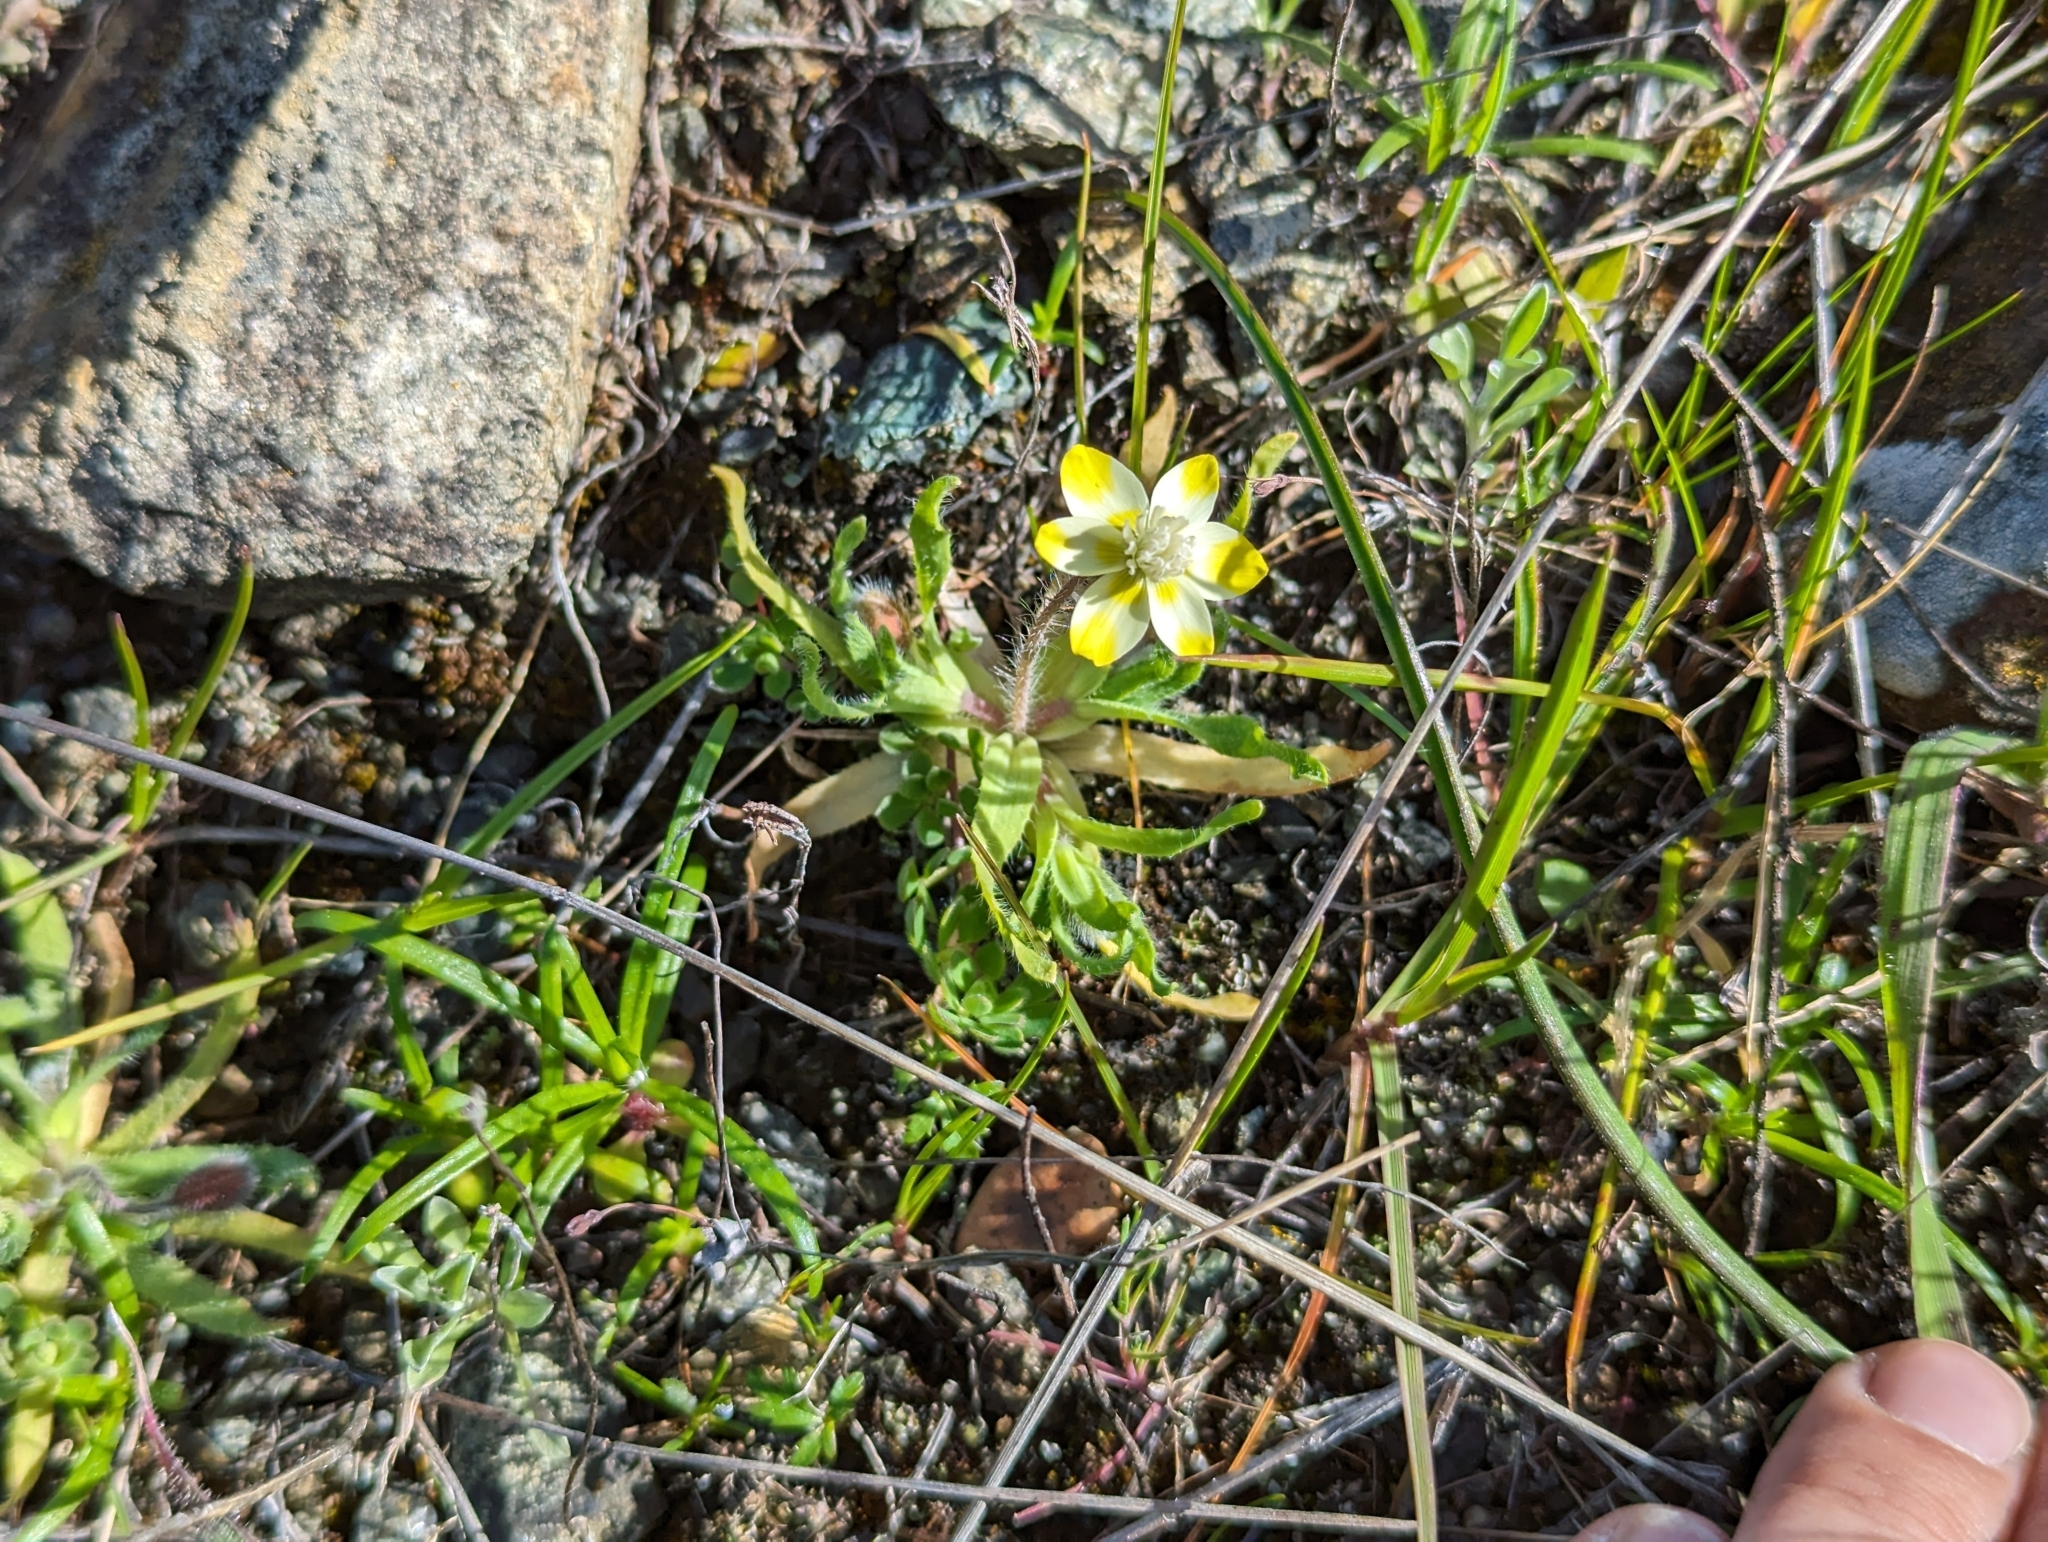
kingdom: Plantae
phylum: Tracheophyta
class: Magnoliopsida
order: Ranunculales
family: Papaveraceae
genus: Platystemon
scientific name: Platystemon californicus
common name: Cream-cups
